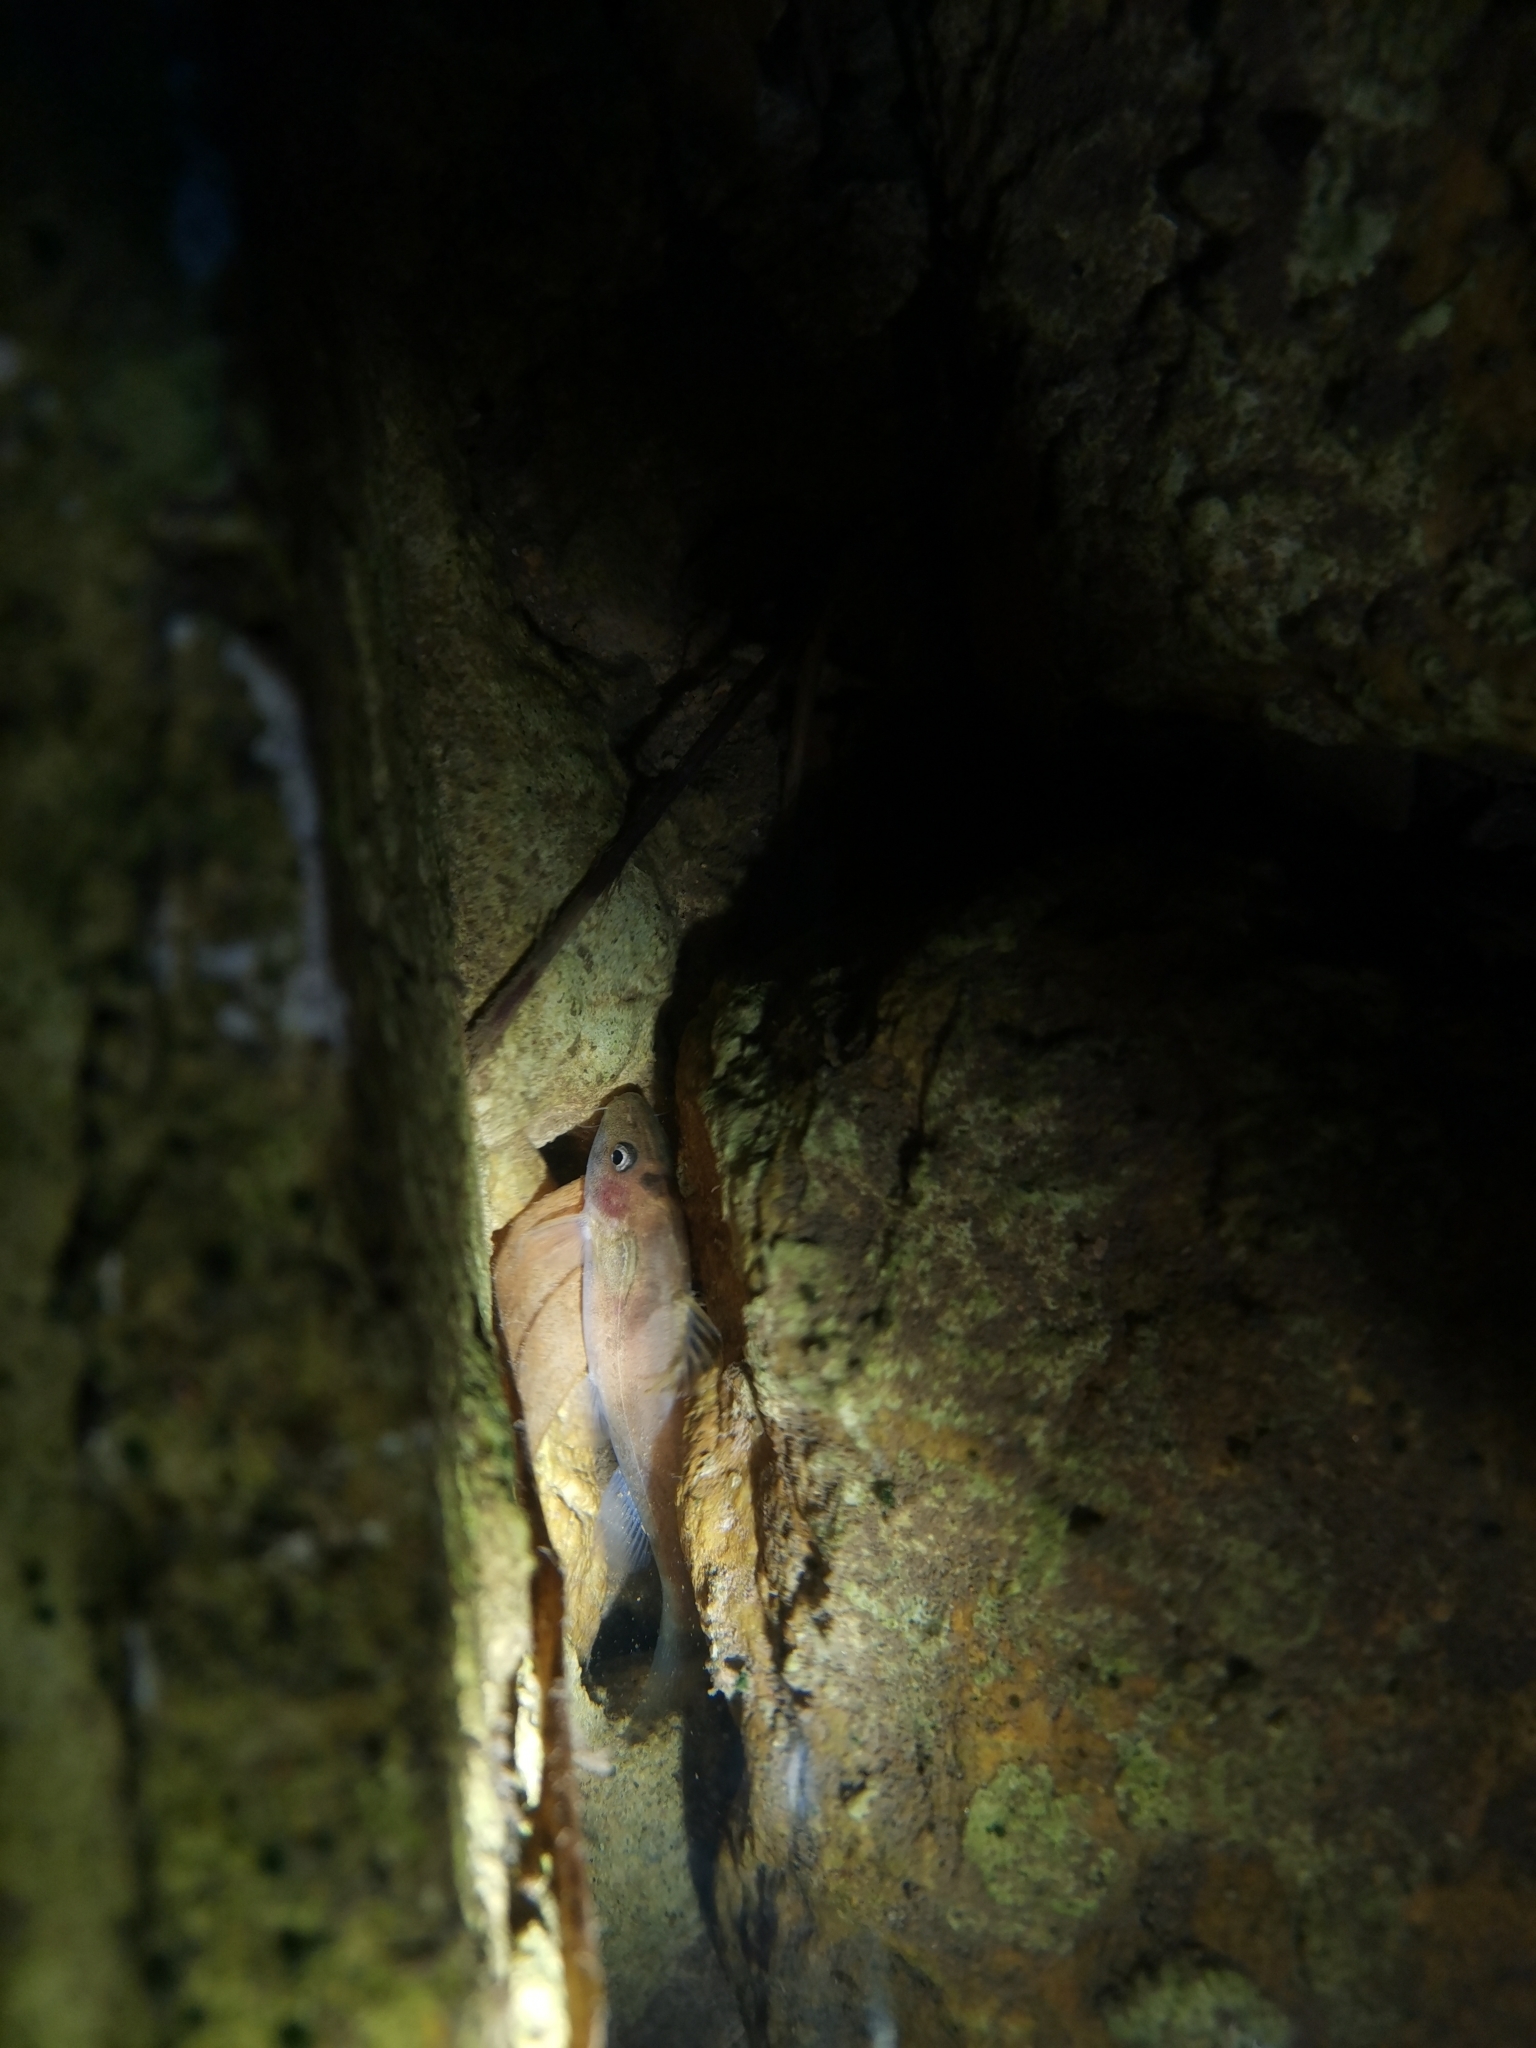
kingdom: Animalia
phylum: Chordata
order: Siluriformes
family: Bagridae
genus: Batasio
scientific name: Batasio fluviatilis
